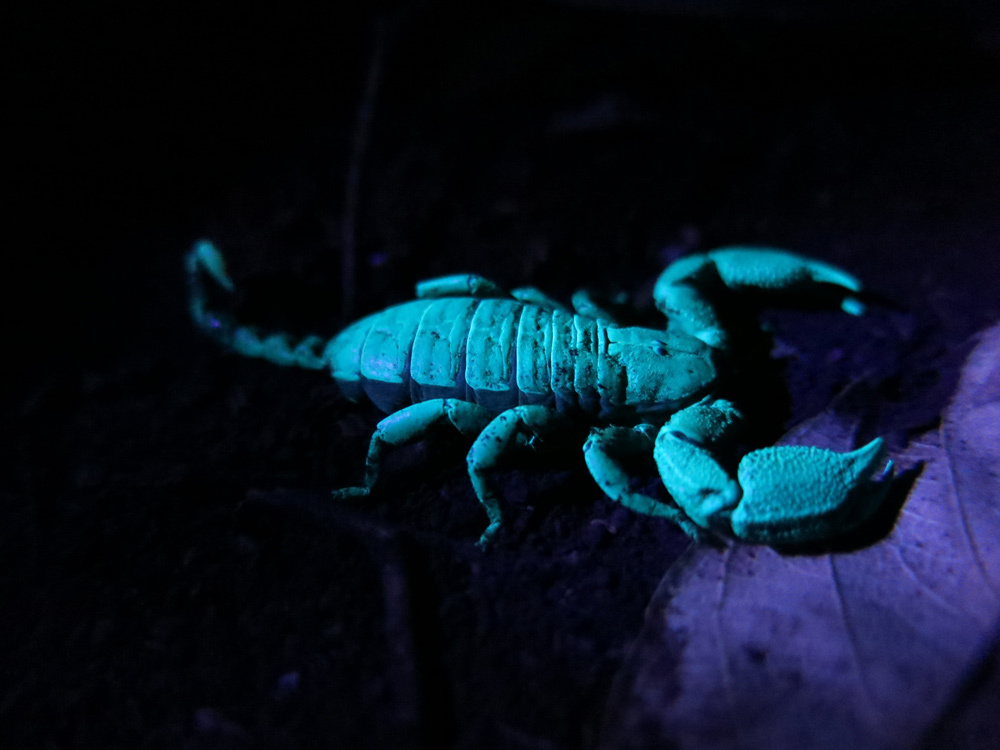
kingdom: Animalia
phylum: Arthropoda
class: Arachnida
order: Scorpiones
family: Hormuridae
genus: Opisthacanthus
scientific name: Opisthacanthus asper
